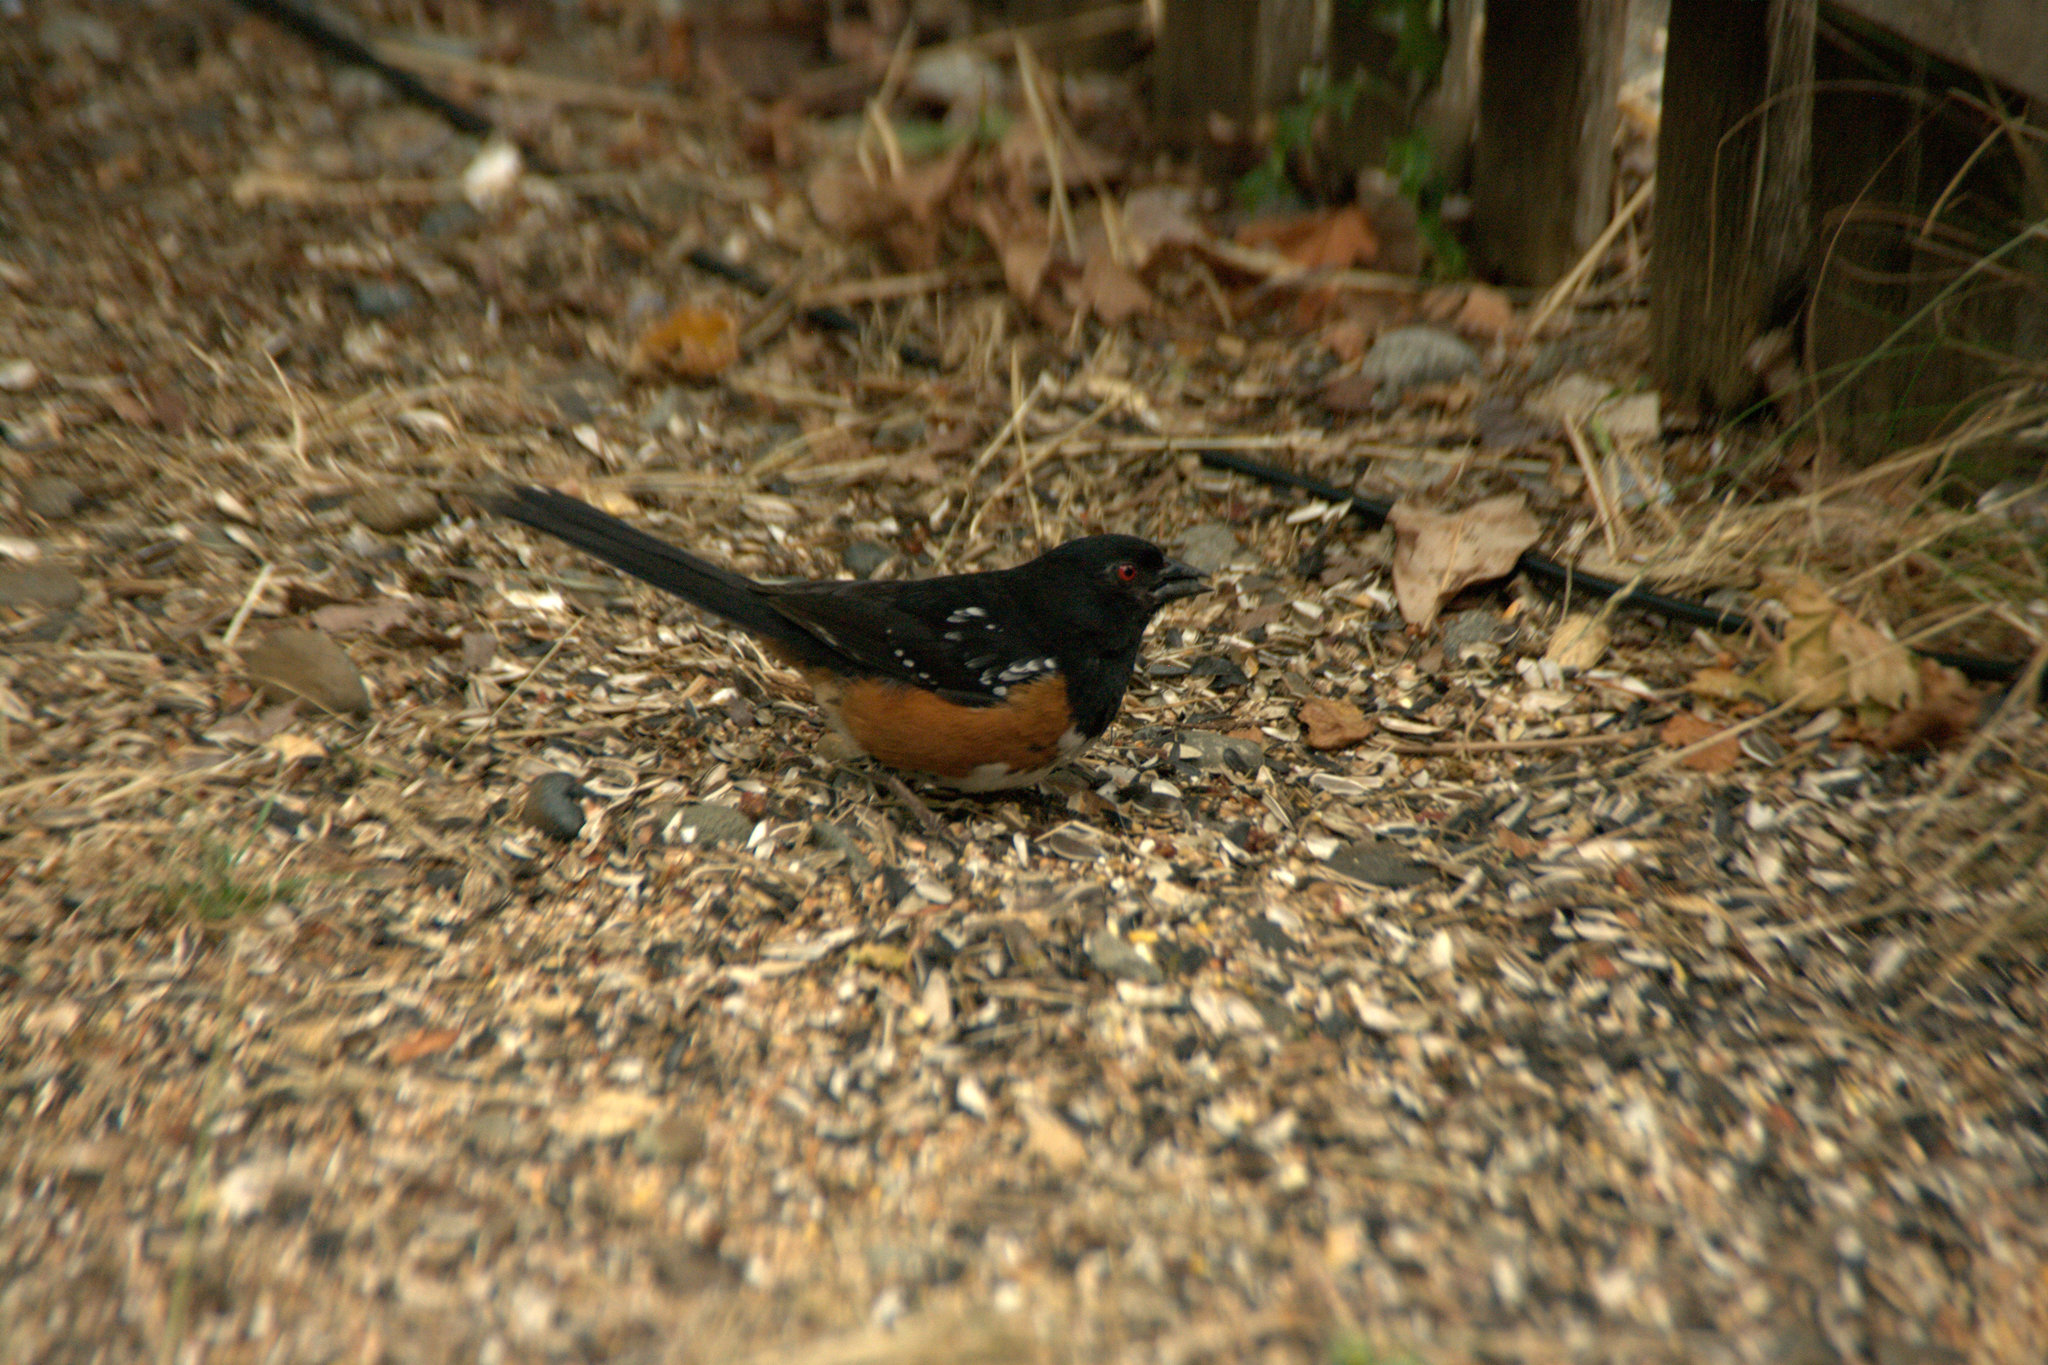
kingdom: Animalia
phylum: Chordata
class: Aves
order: Passeriformes
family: Passerellidae
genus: Pipilo
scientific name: Pipilo maculatus
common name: Spotted towhee
